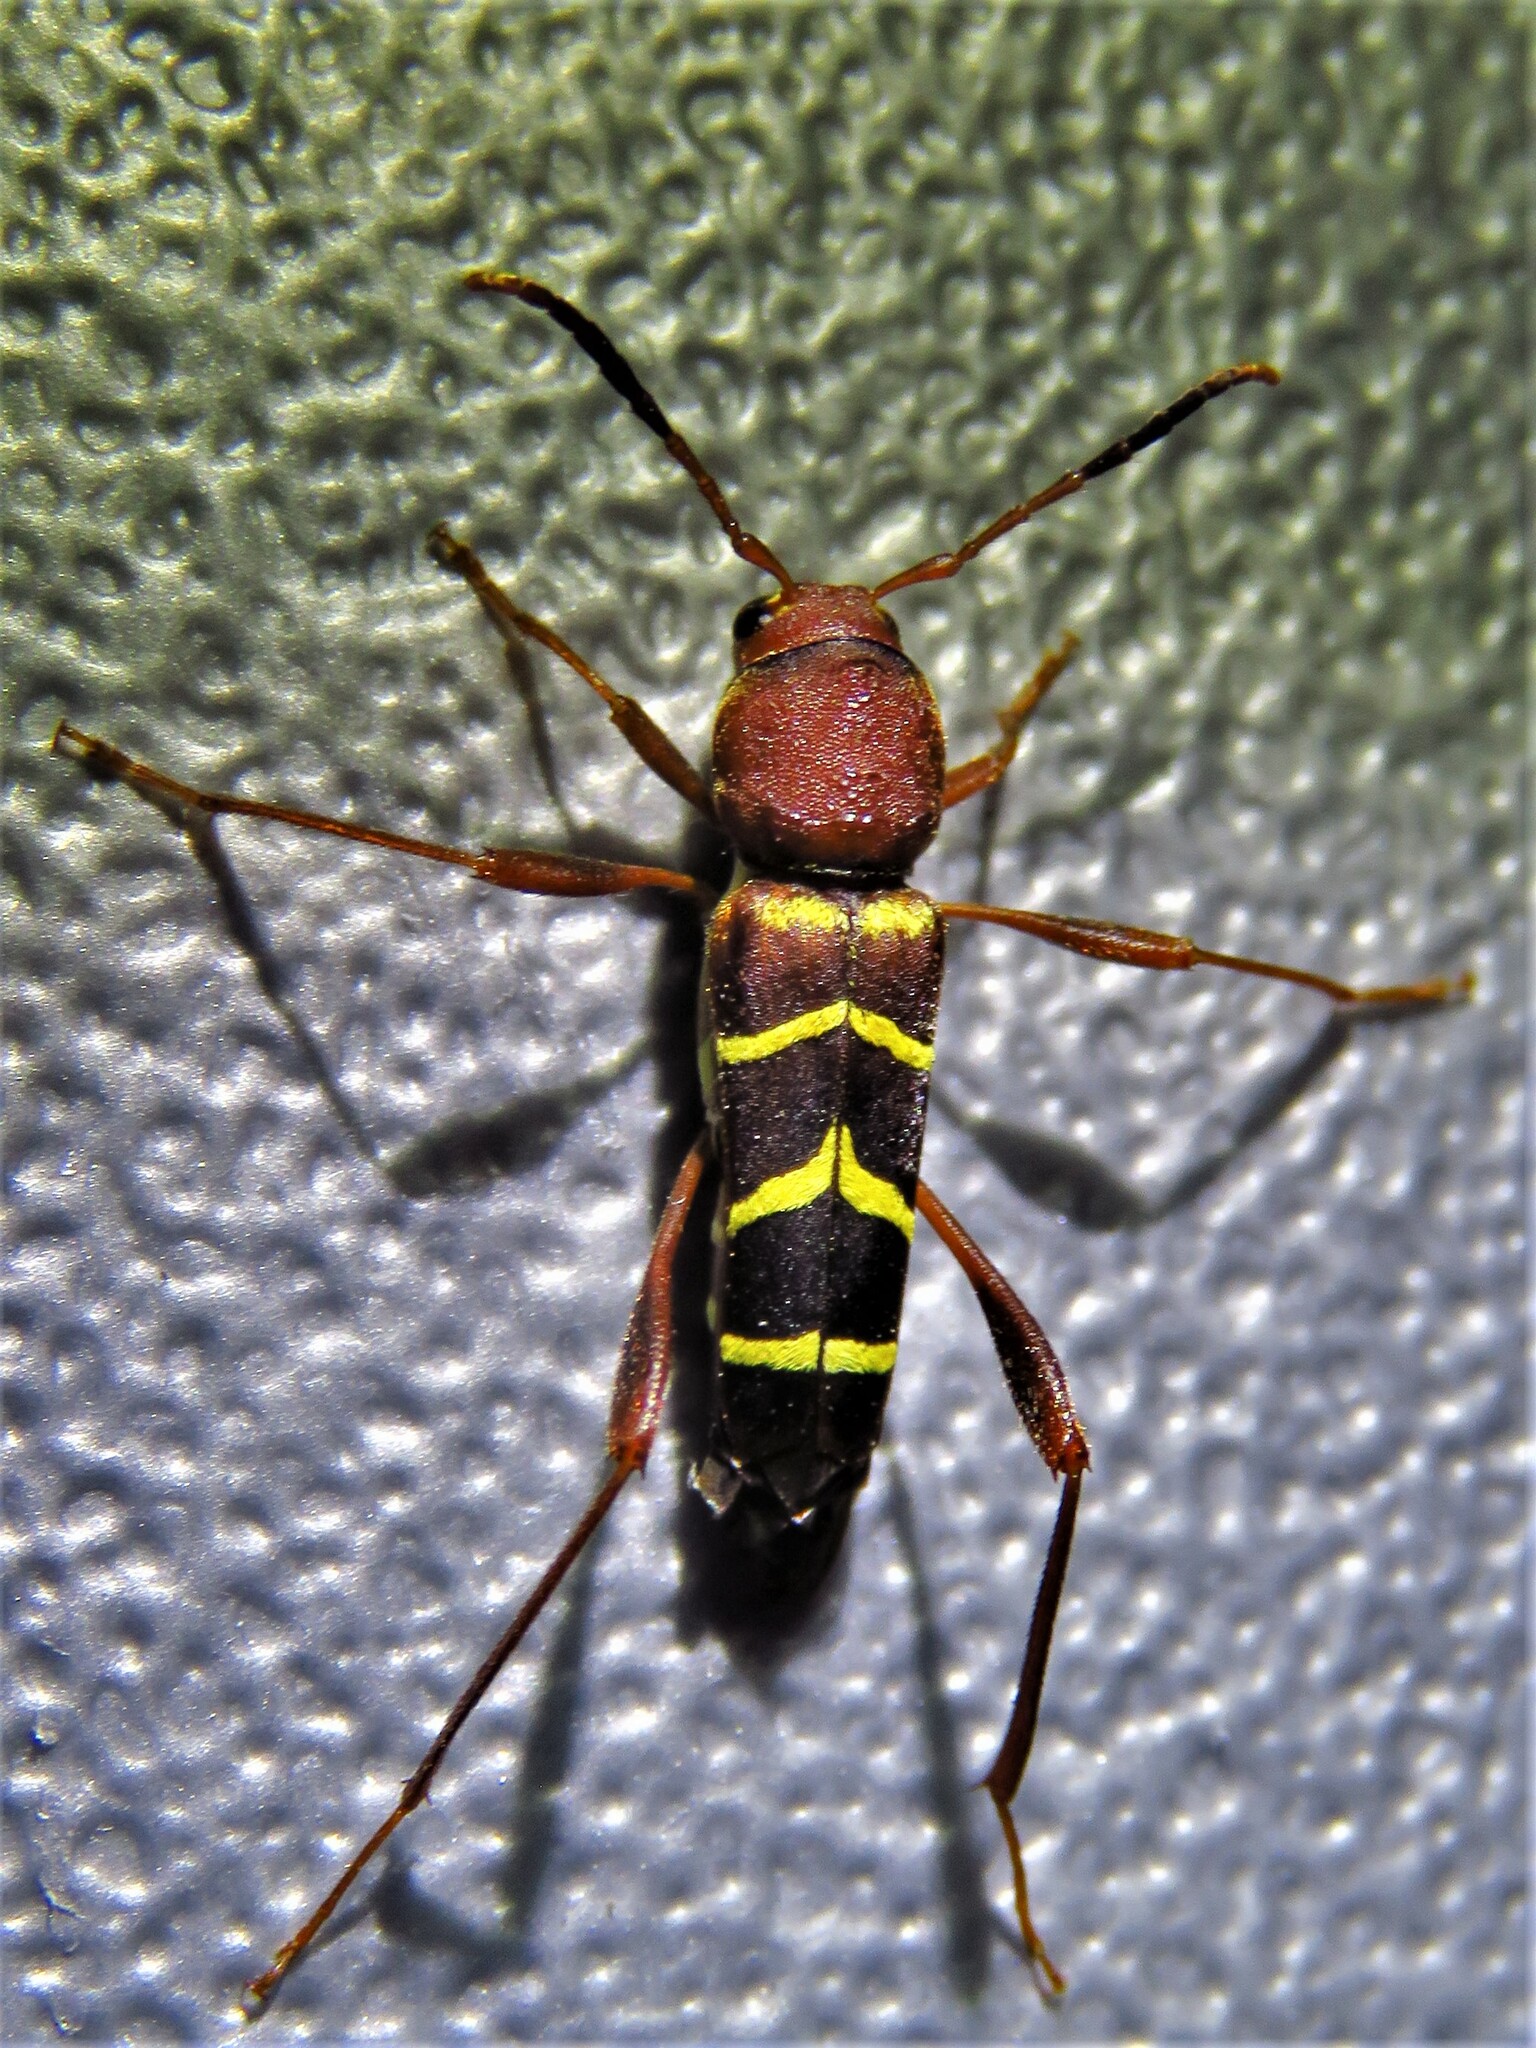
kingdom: Animalia
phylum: Arthropoda
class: Insecta
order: Coleoptera
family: Cerambycidae
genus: Neoclytus
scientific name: Neoclytus acuminatus
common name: Read-headed ash borer
